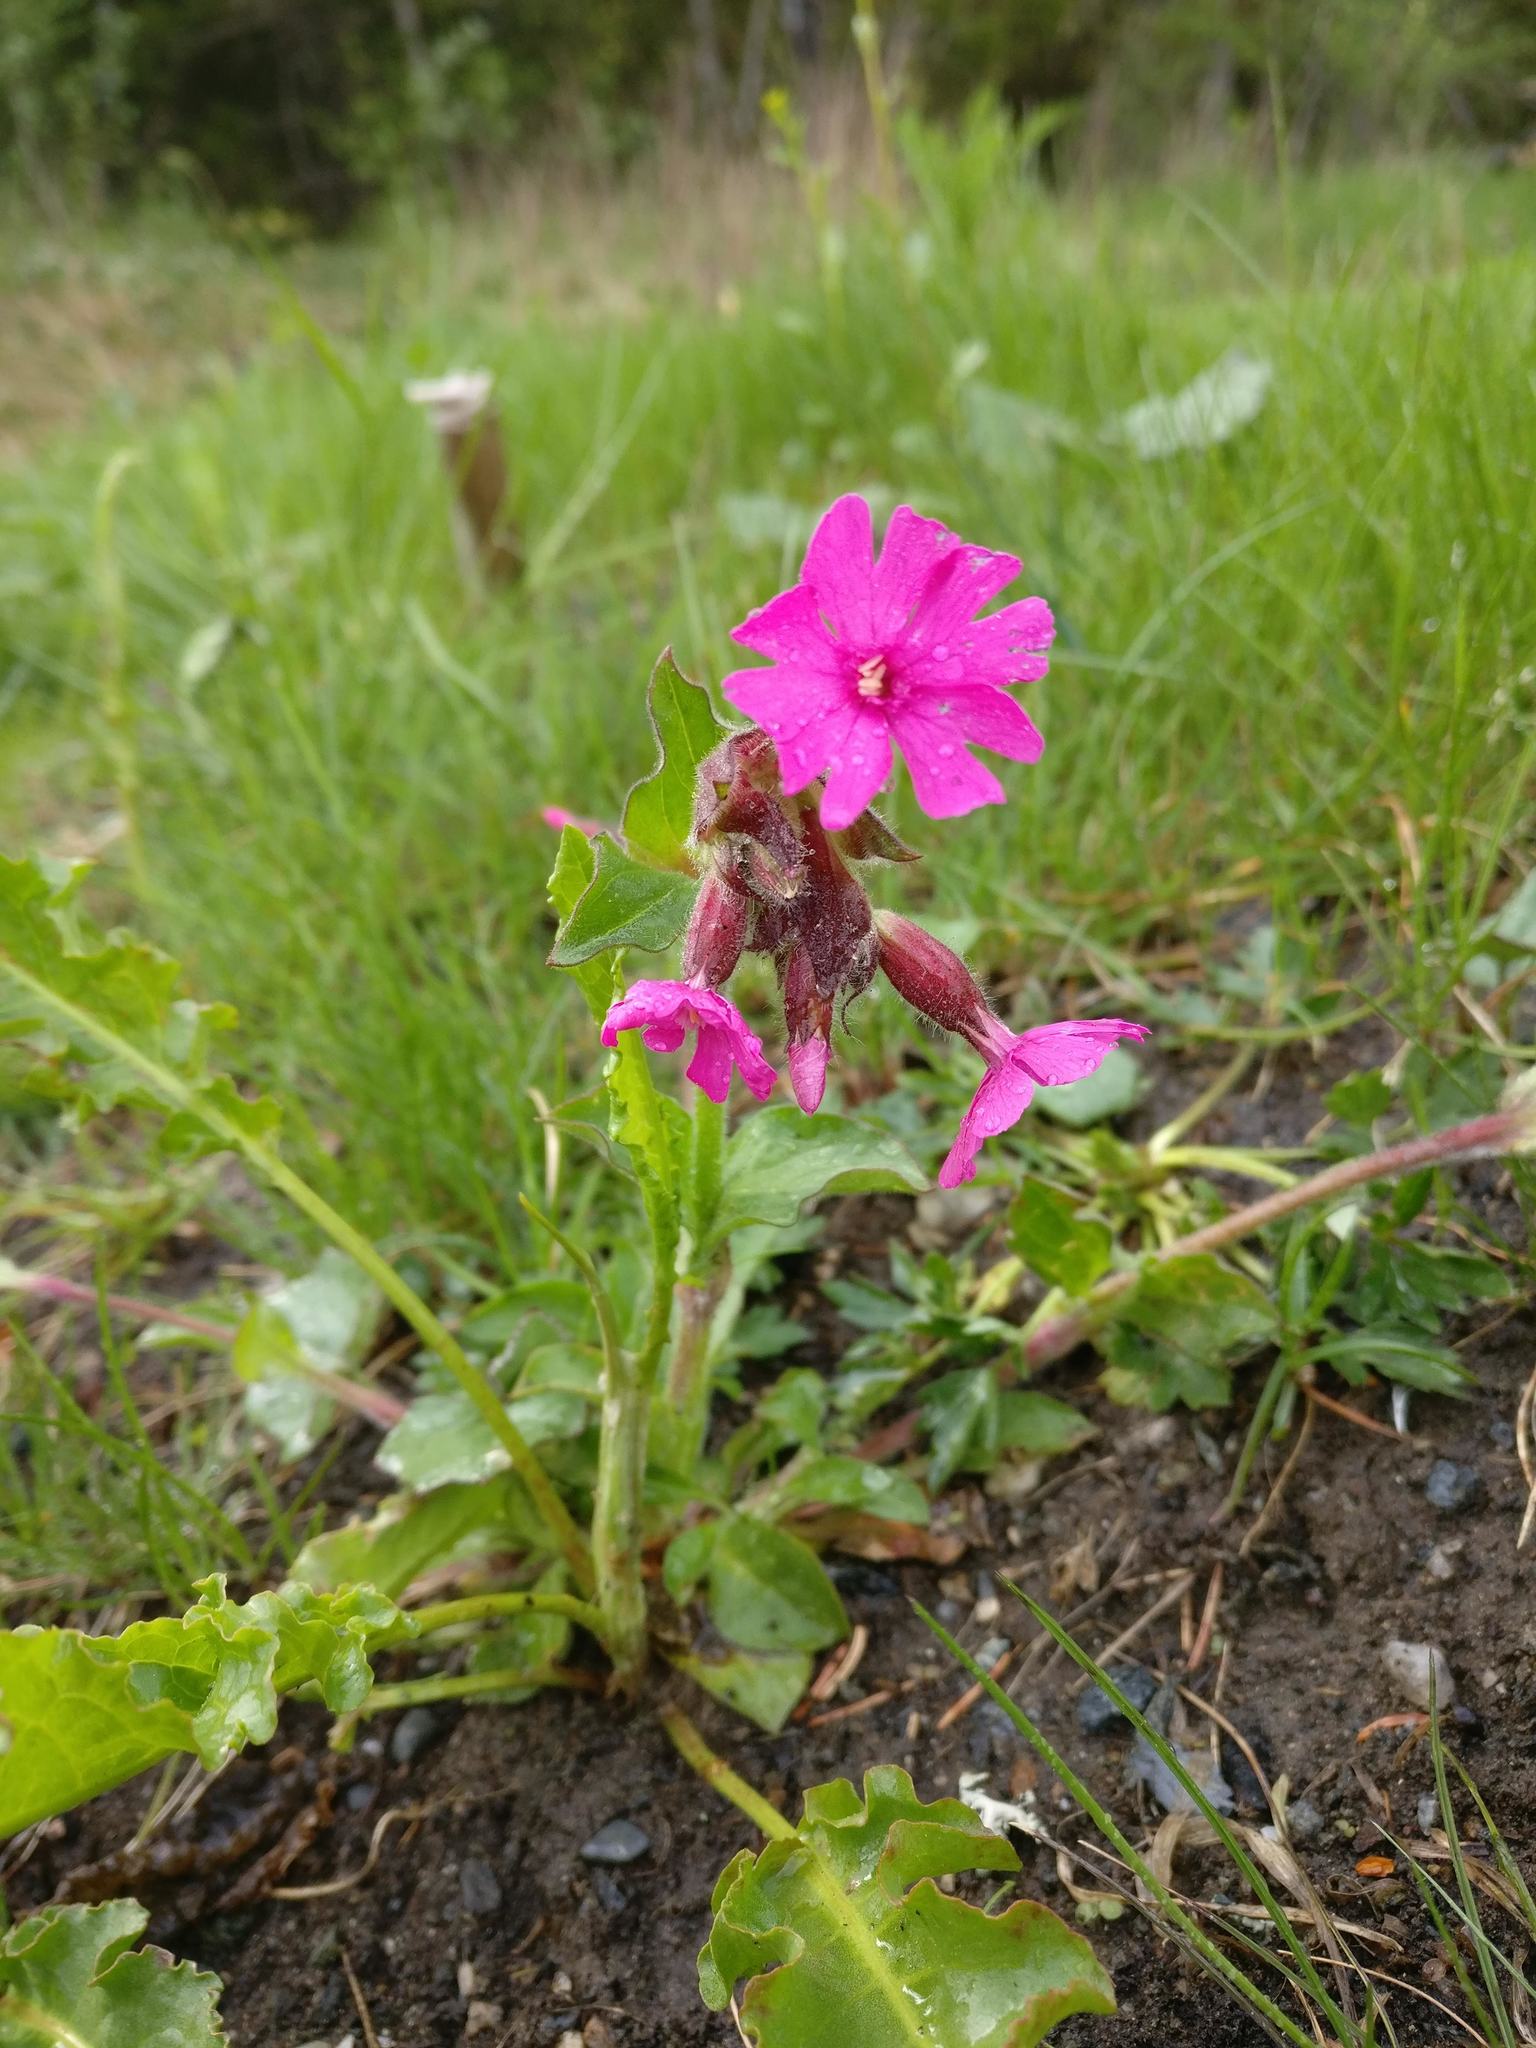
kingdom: Plantae
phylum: Tracheophyta
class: Magnoliopsida
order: Caryophyllales
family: Caryophyllaceae
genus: Silene
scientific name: Silene dioica
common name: Red campion
